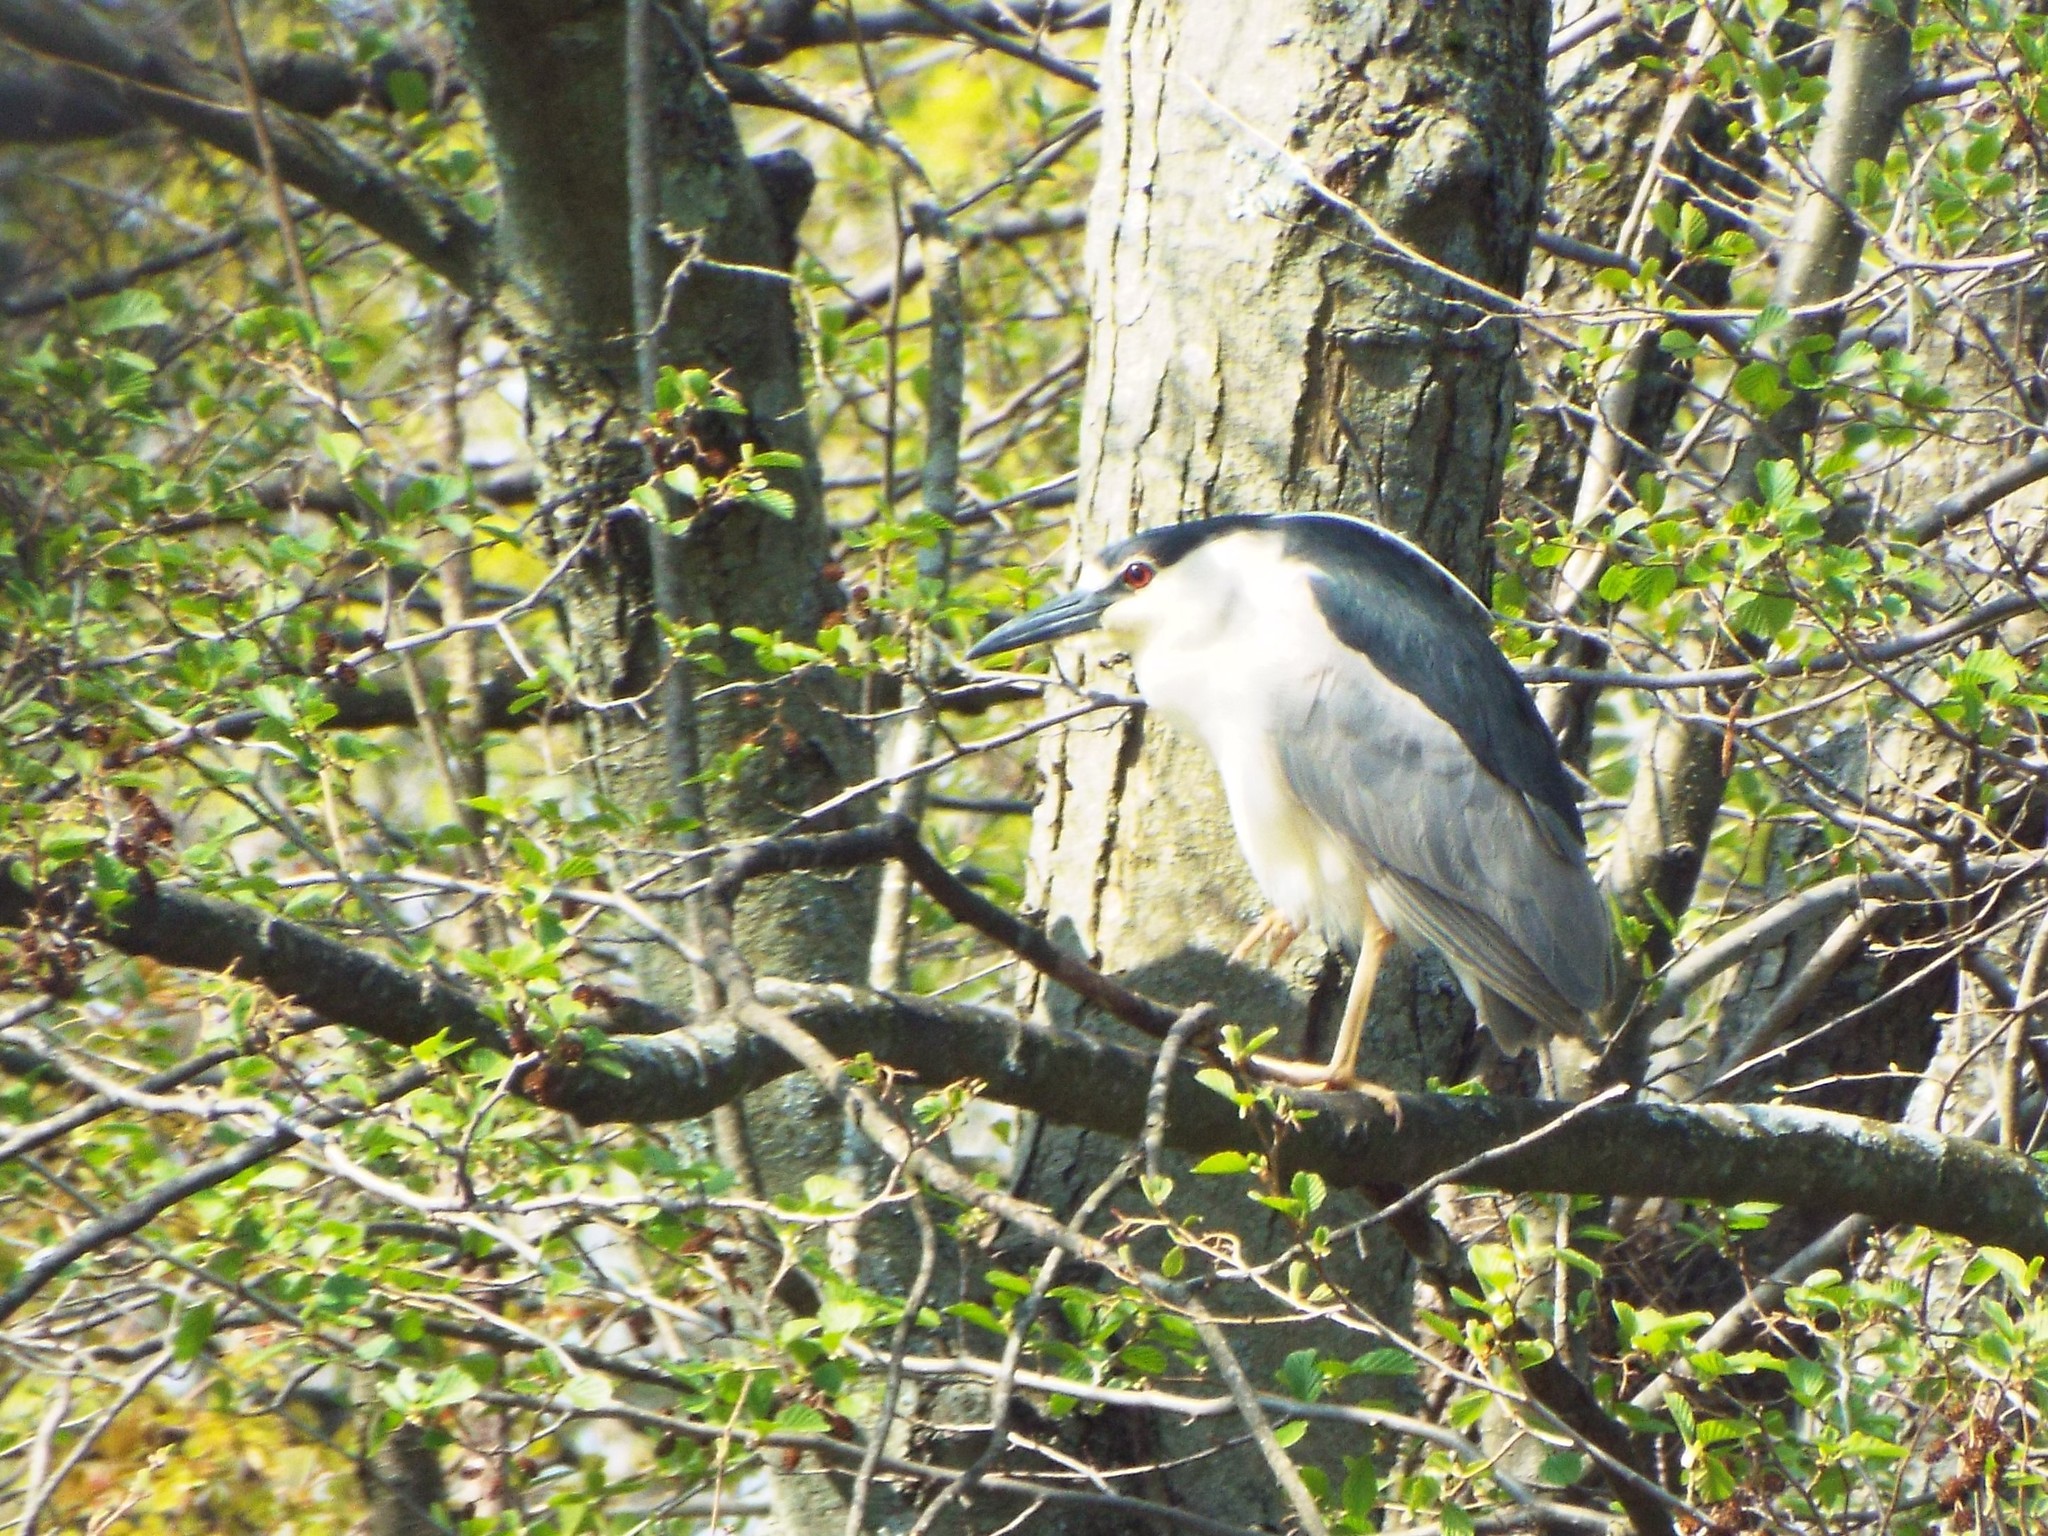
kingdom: Animalia
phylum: Chordata
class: Aves
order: Pelecaniformes
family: Ardeidae
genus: Nycticorax
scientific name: Nycticorax nycticorax
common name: Black-crowned night heron
